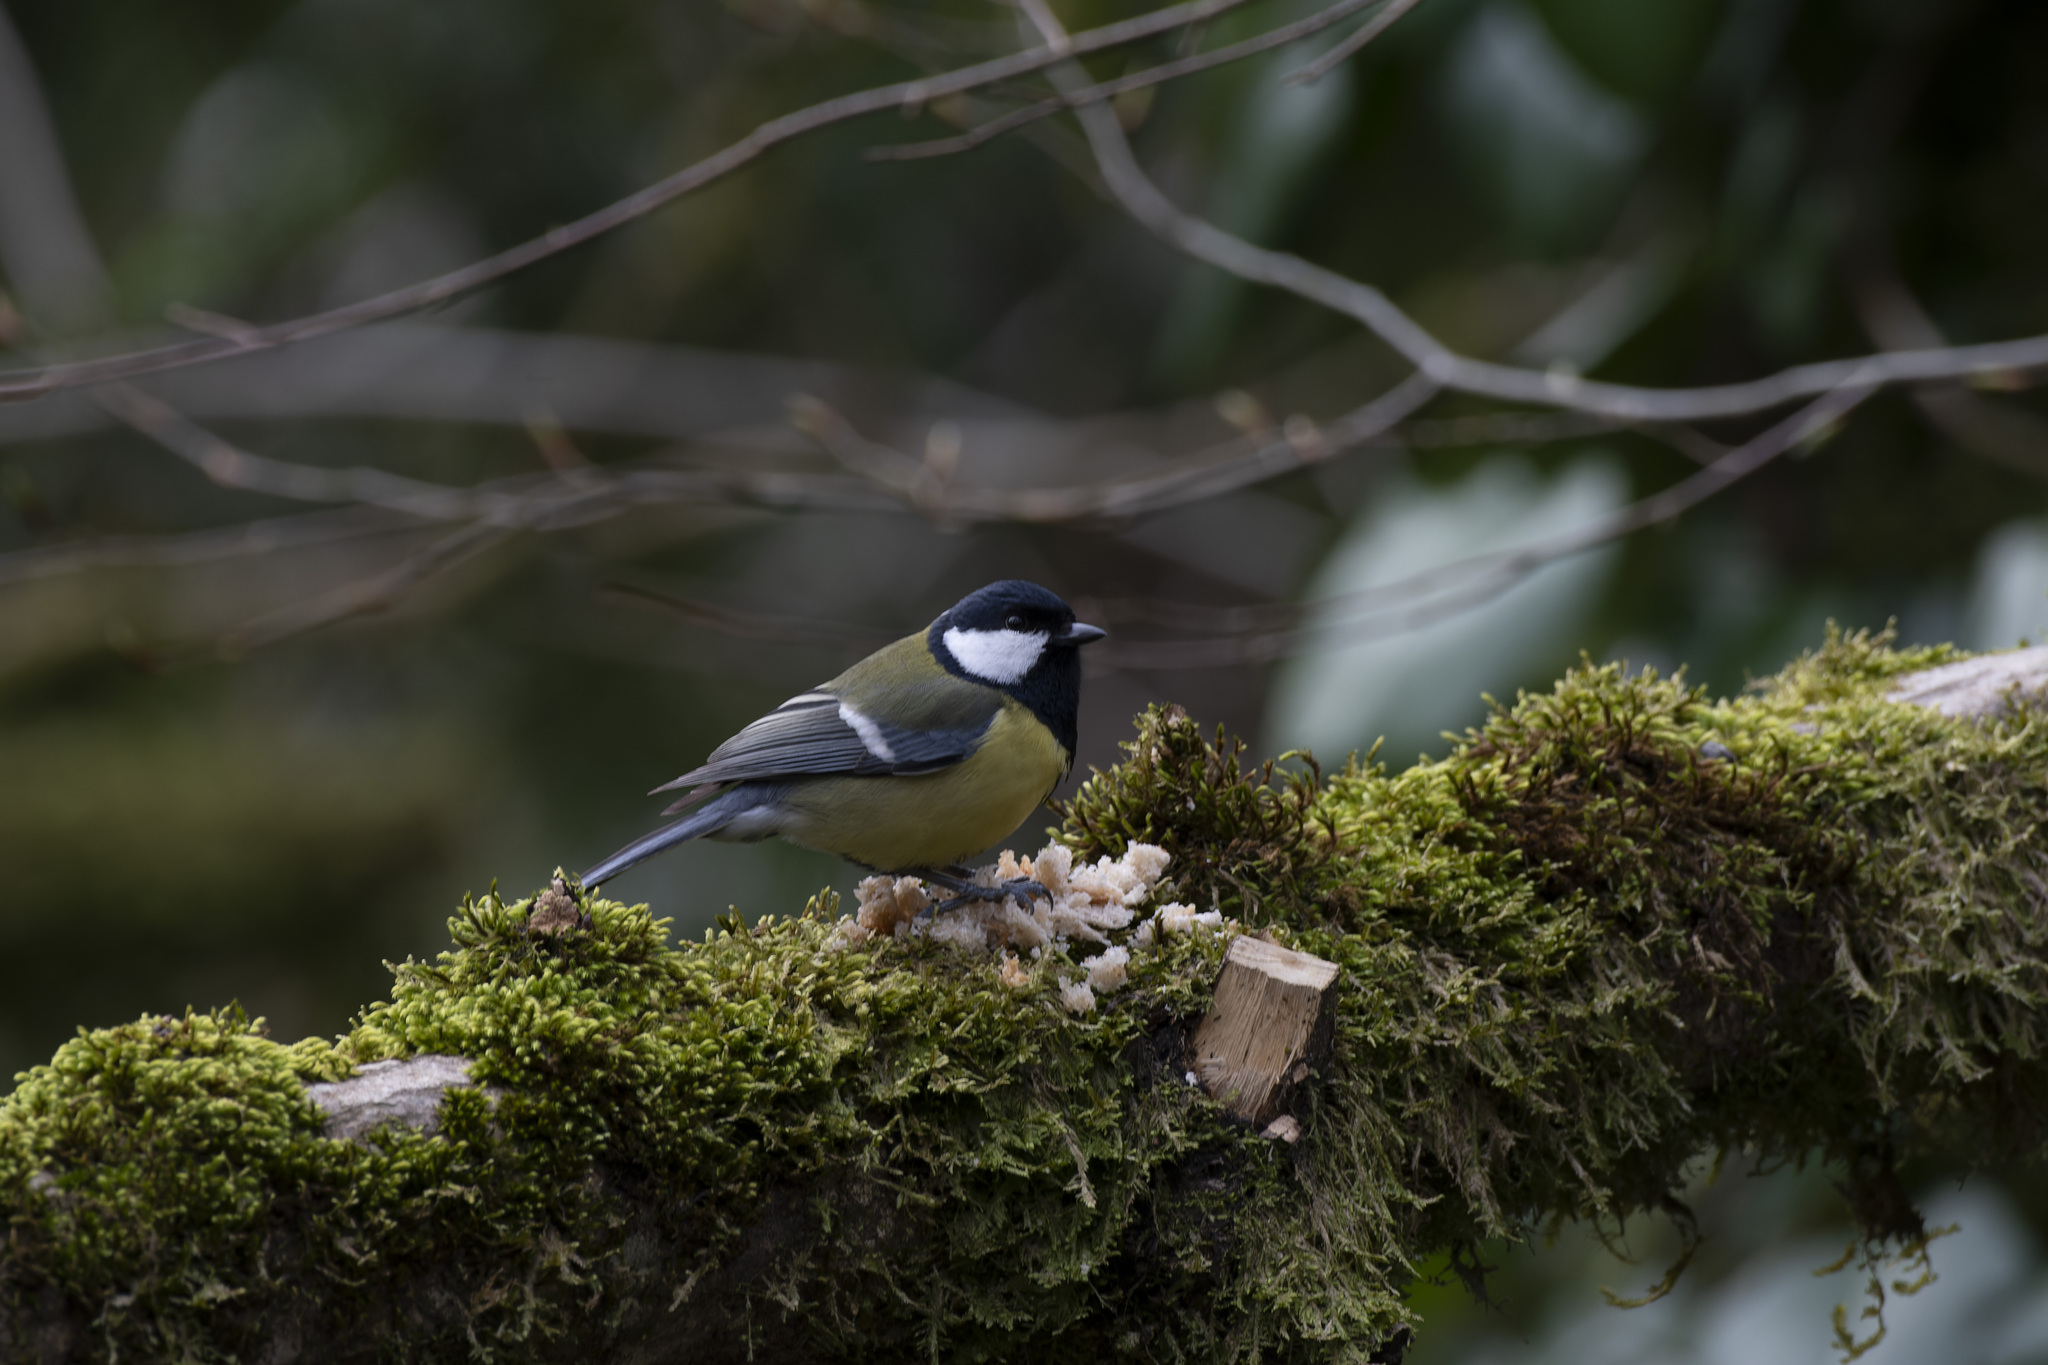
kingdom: Animalia
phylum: Chordata
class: Aves
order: Passeriformes
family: Paridae
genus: Parus
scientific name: Parus major
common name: Great tit
